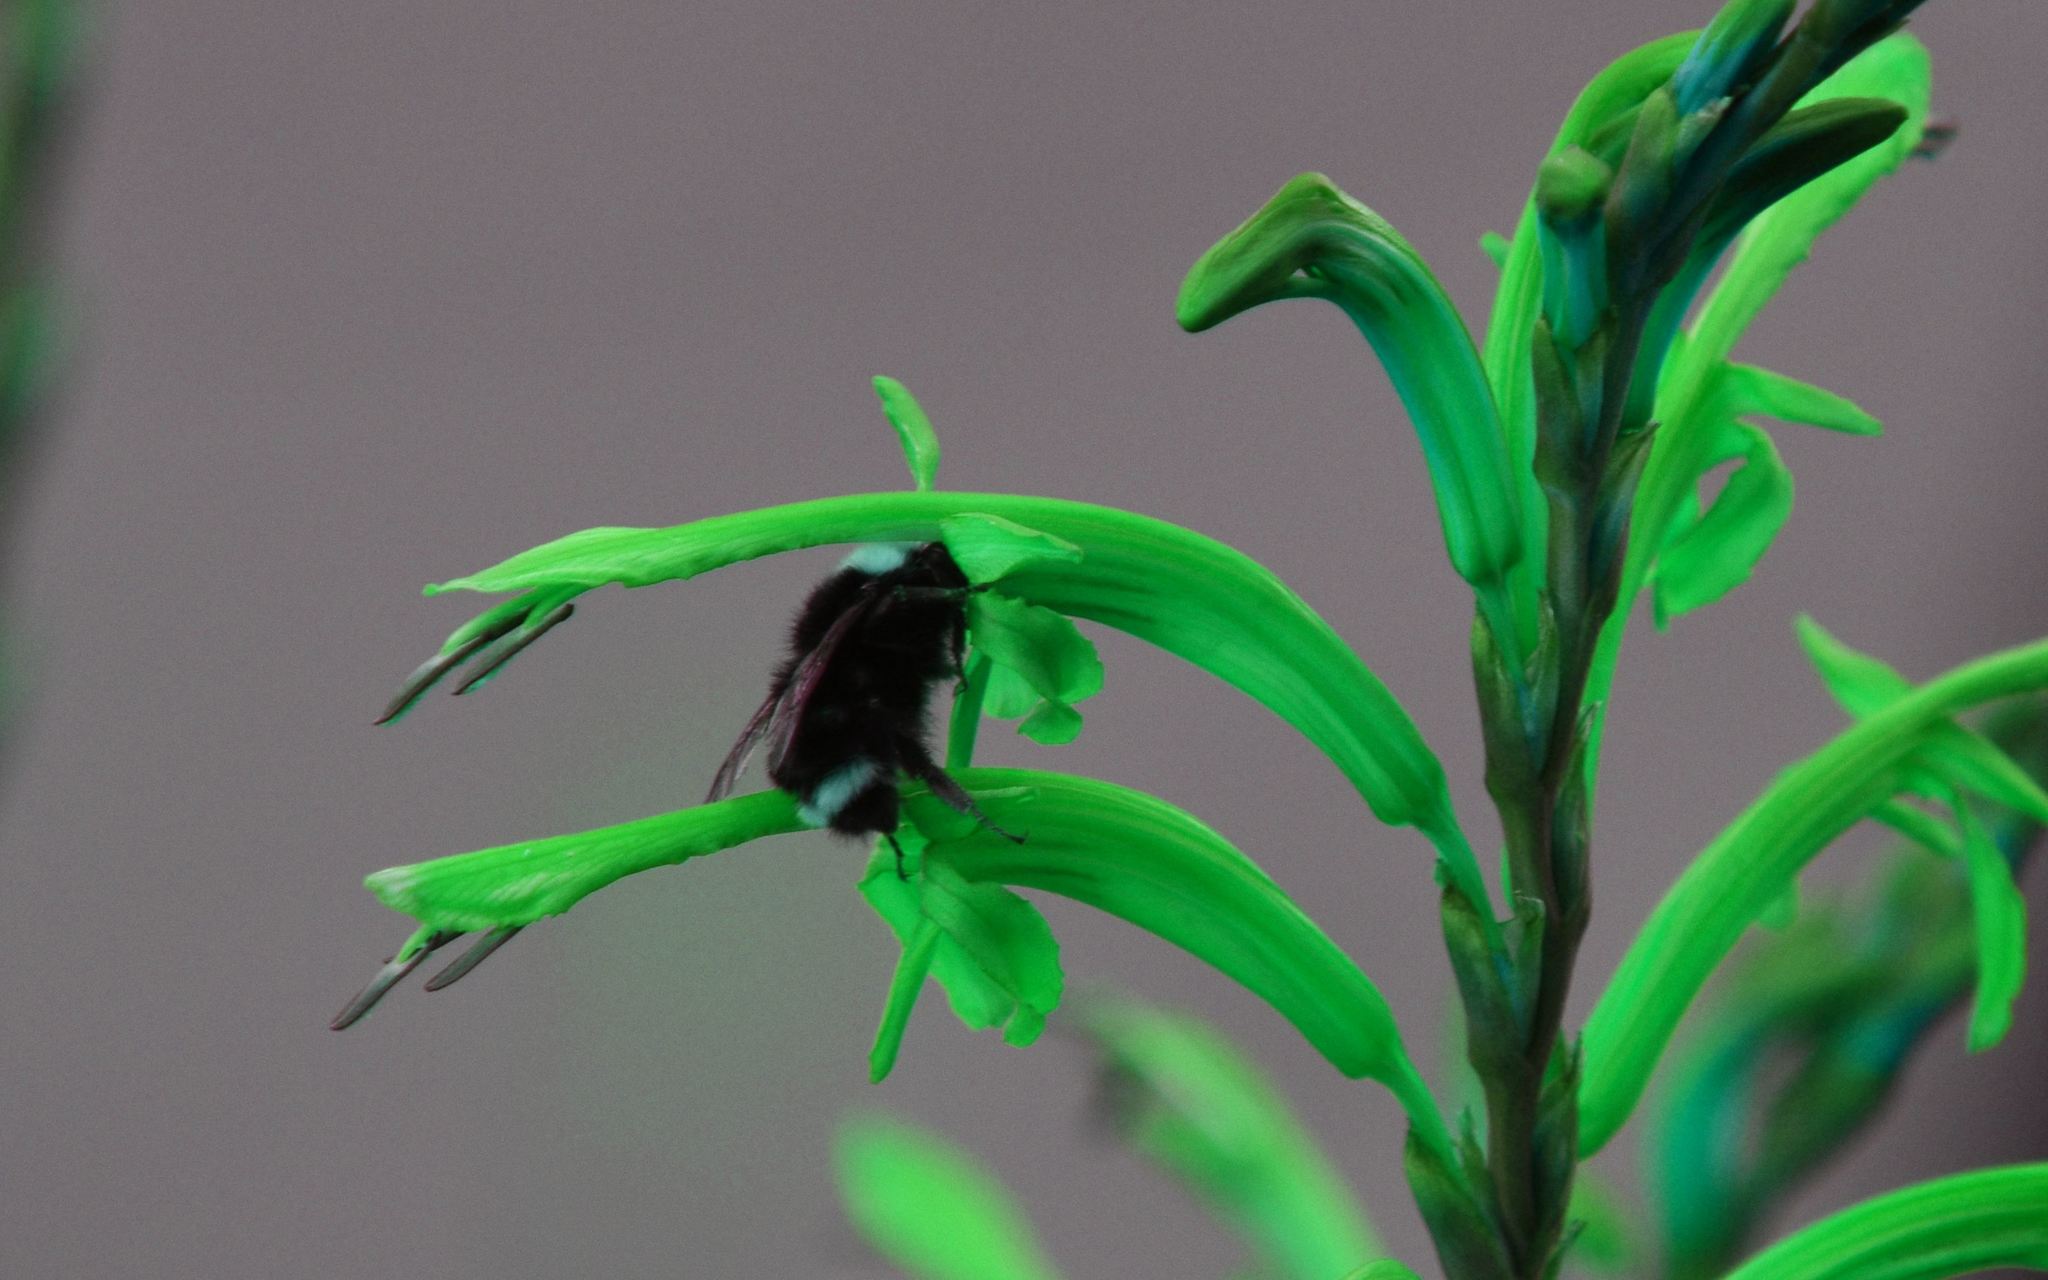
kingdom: Animalia
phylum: Arthropoda
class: Insecta
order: Hymenoptera
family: Apidae
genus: Pyrobombus
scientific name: Pyrobombus
